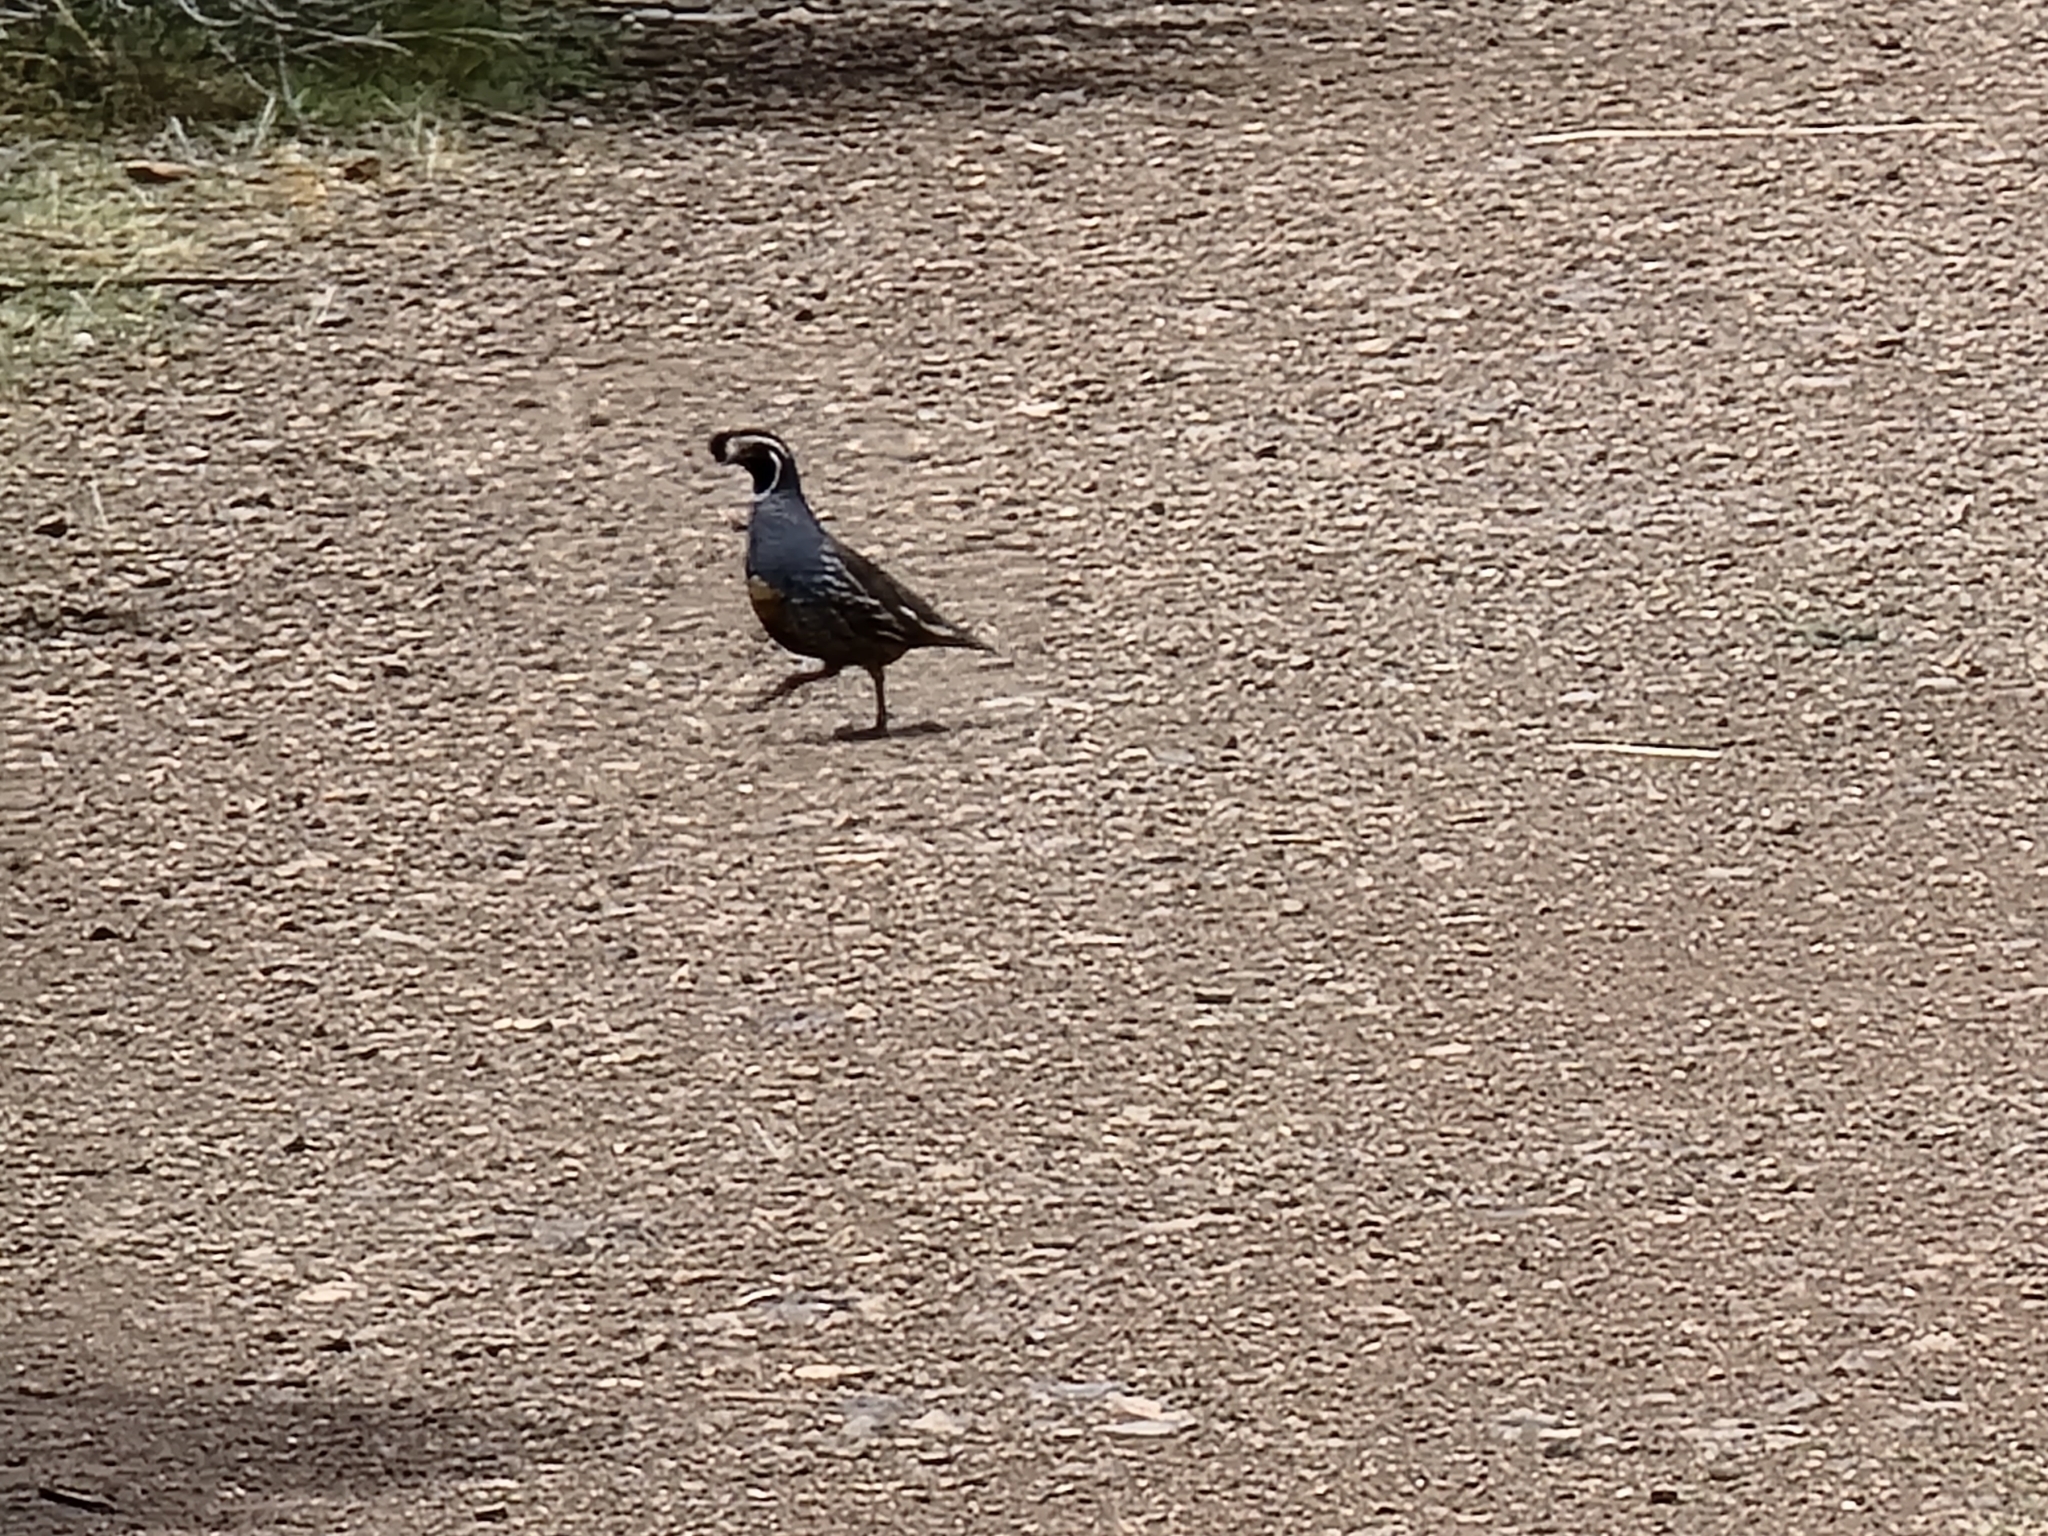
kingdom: Animalia
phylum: Chordata
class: Aves
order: Galliformes
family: Odontophoridae
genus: Callipepla
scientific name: Callipepla californica
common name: California quail
